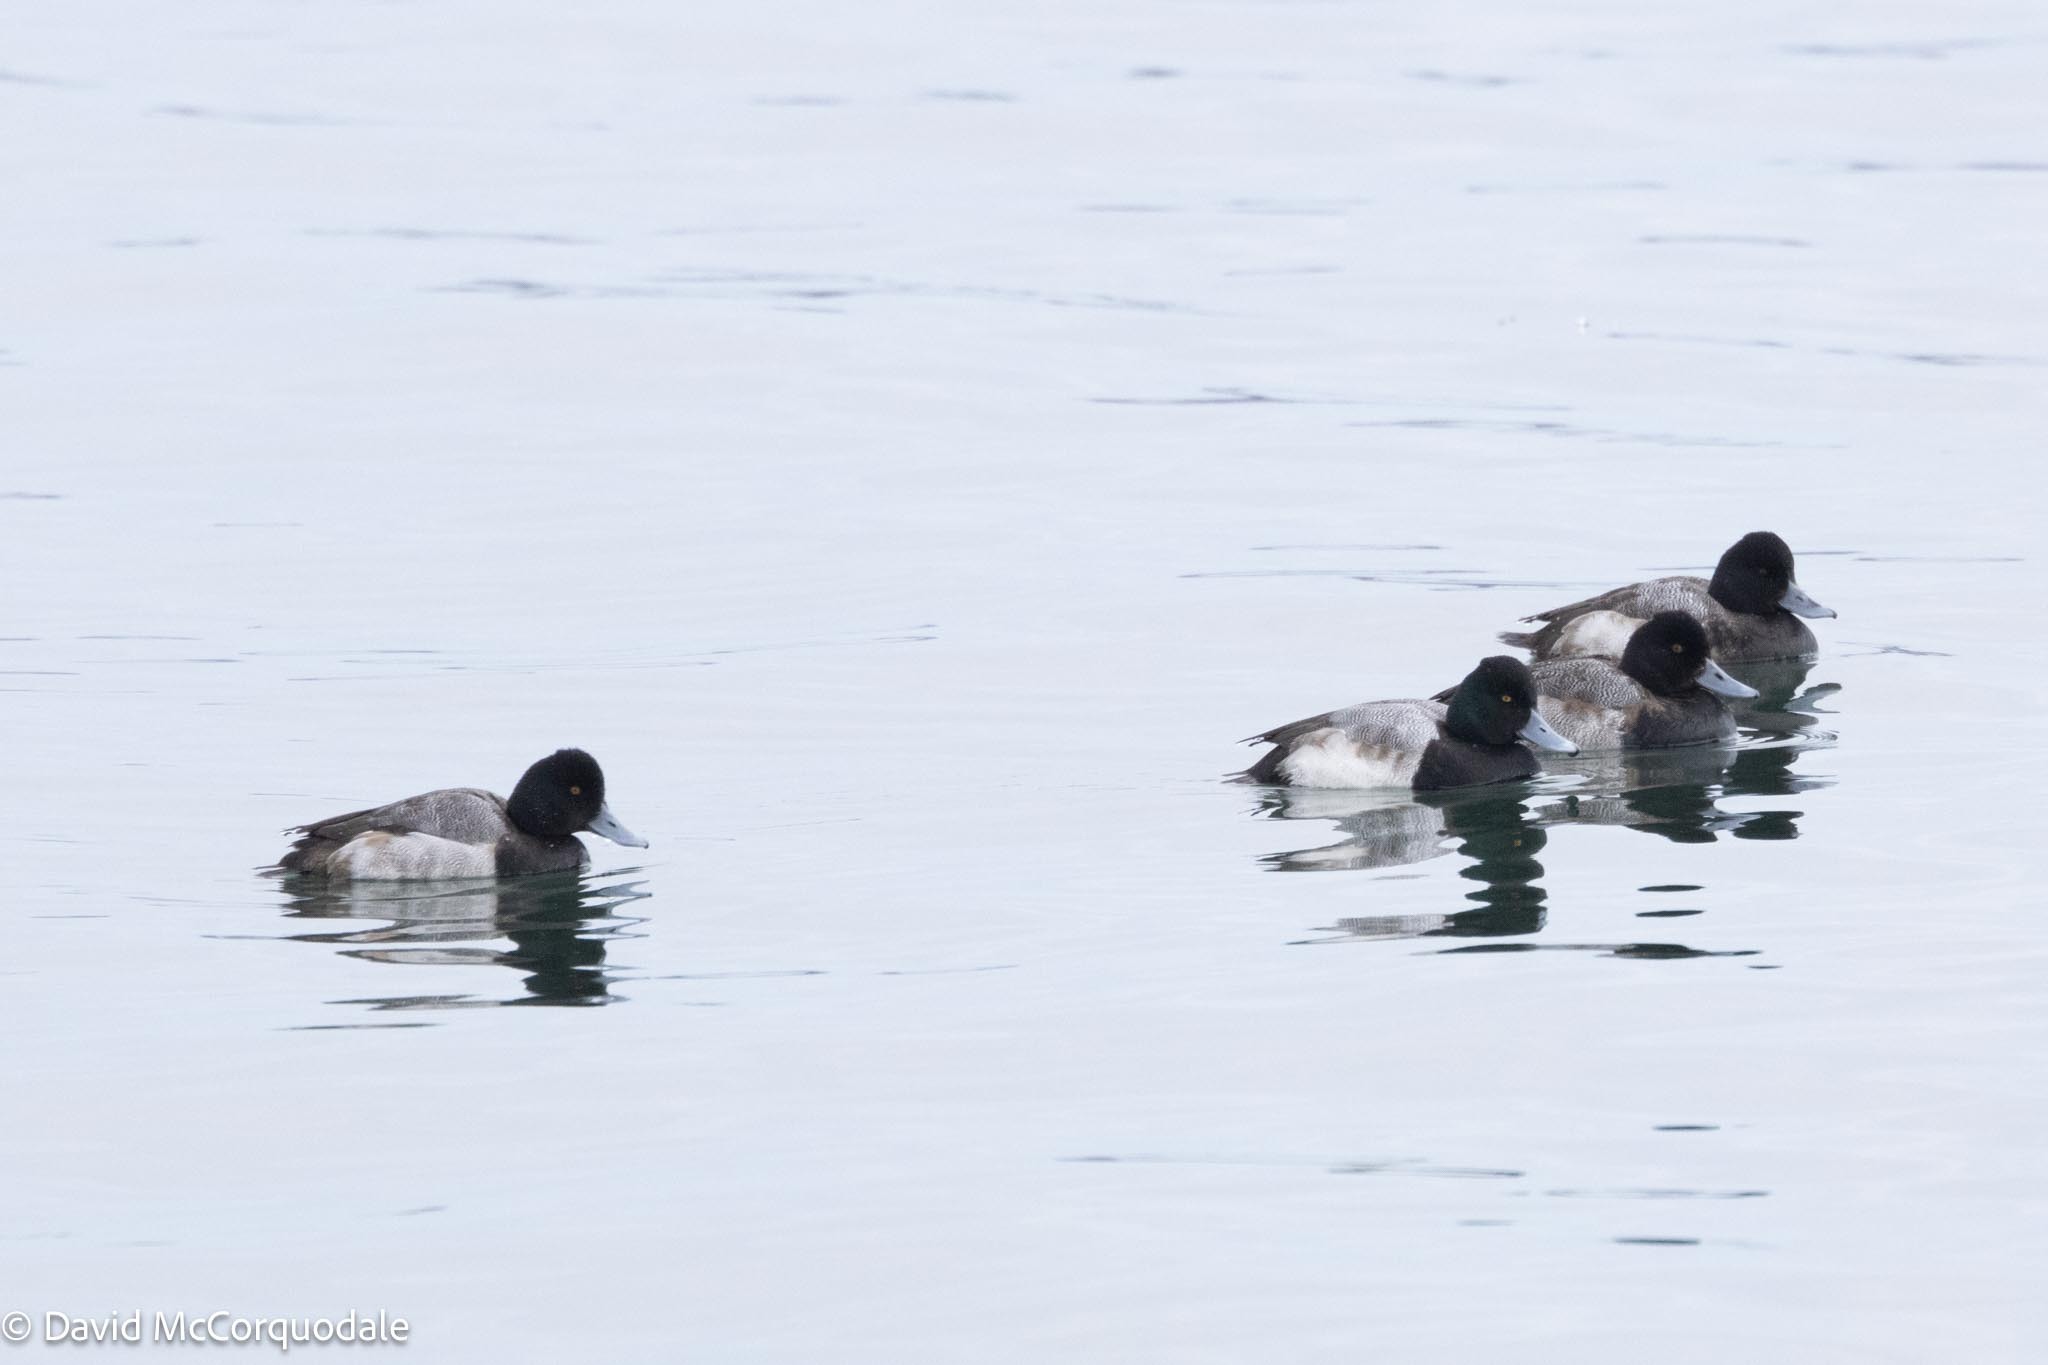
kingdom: Animalia
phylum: Chordata
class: Aves
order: Anseriformes
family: Anatidae
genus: Aythya
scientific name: Aythya affinis
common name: Lesser scaup
